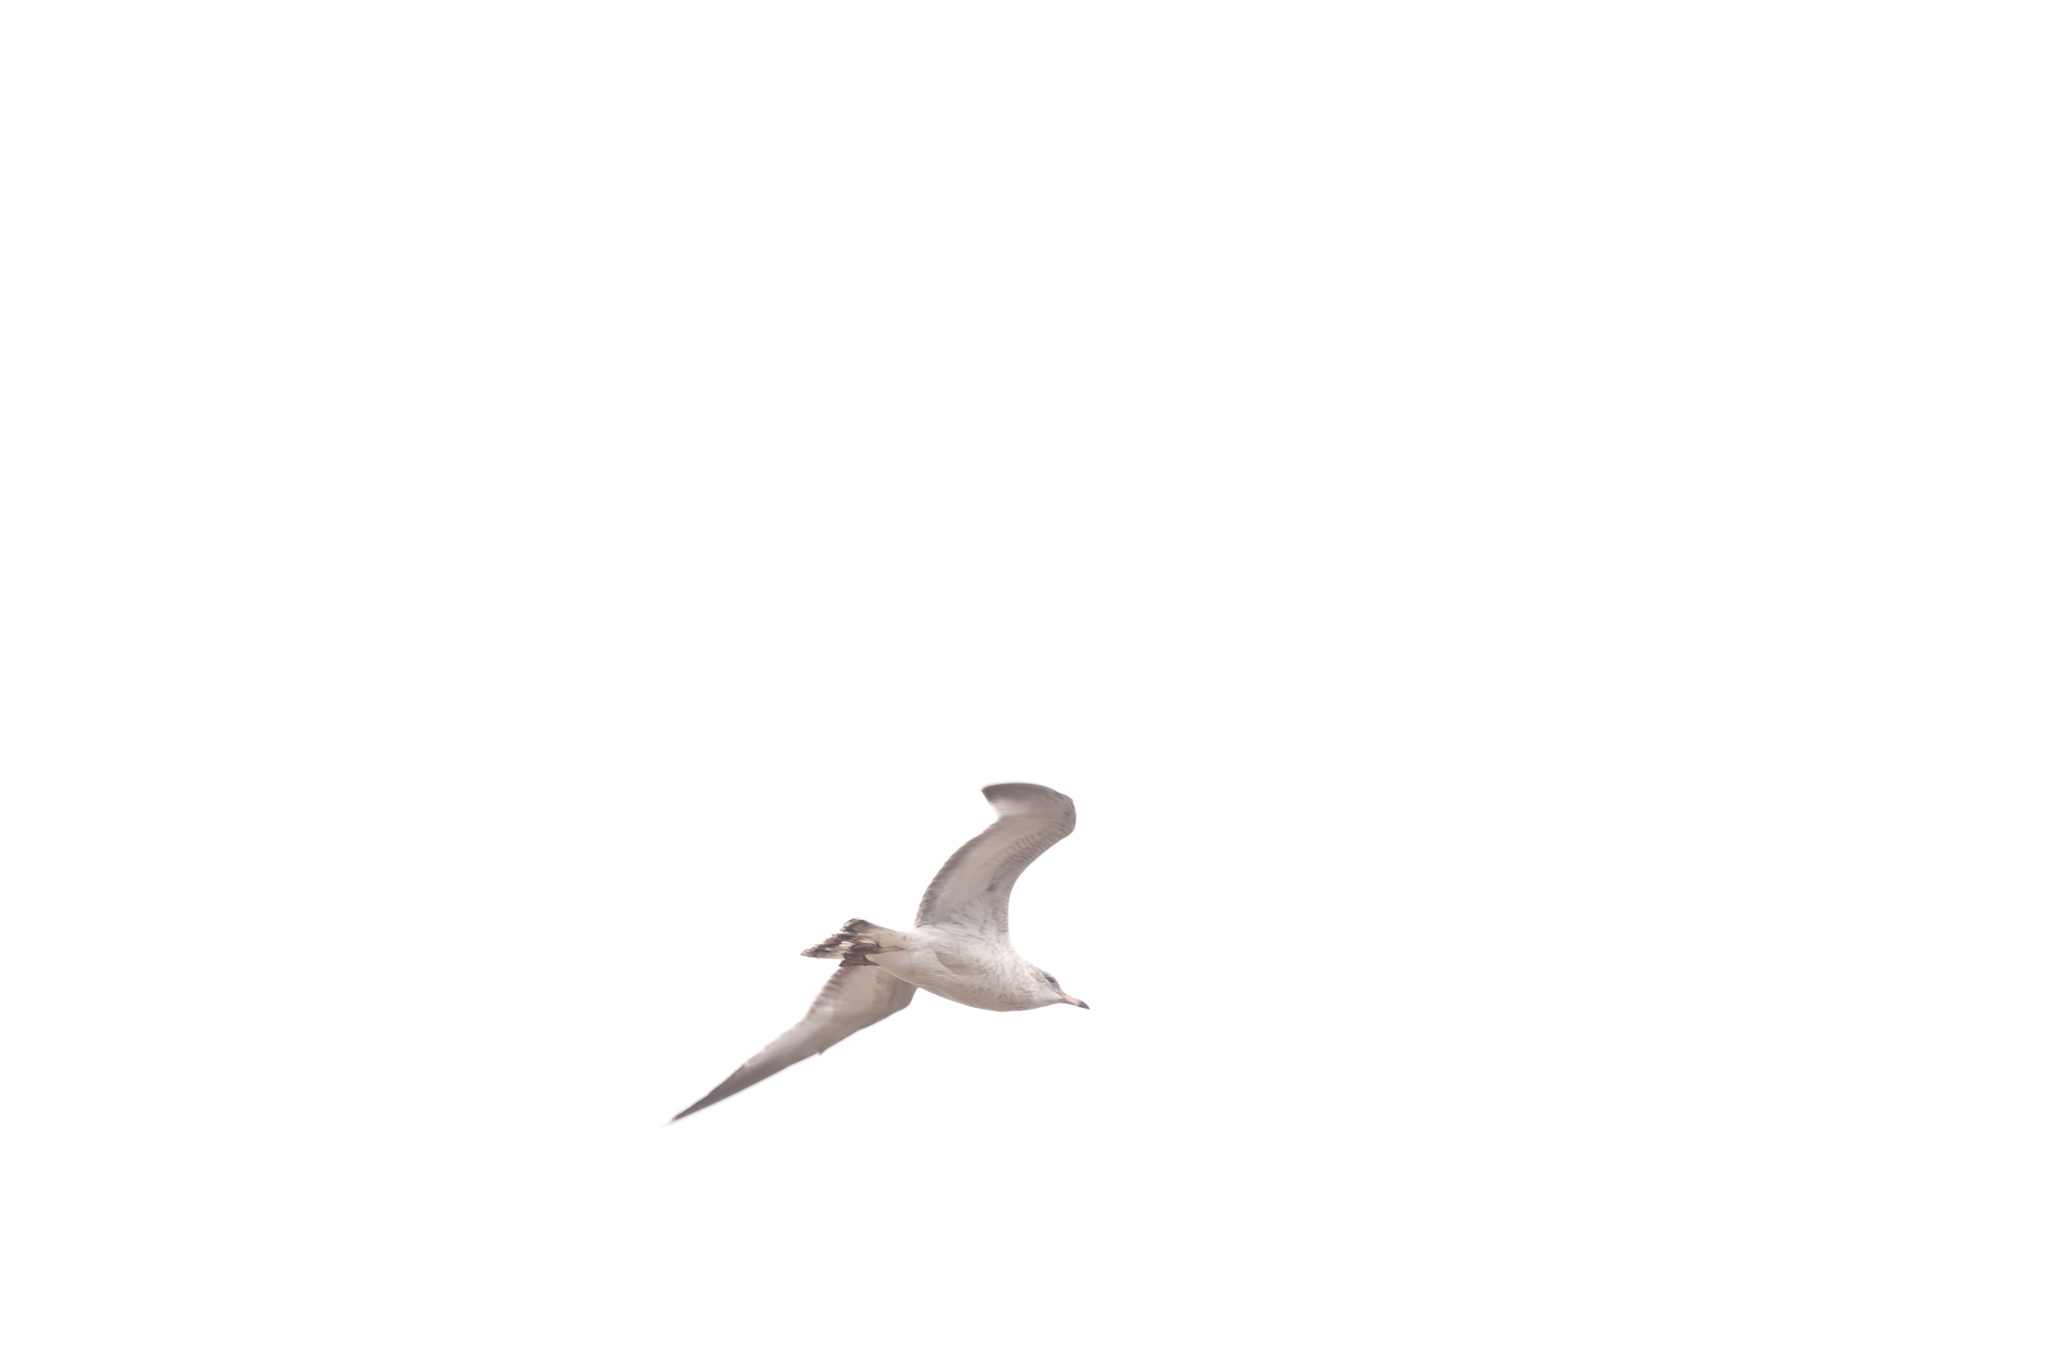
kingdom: Animalia
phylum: Chordata
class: Aves
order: Charadriiformes
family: Laridae
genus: Larus
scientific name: Larus delawarensis
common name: Ring-billed gull
